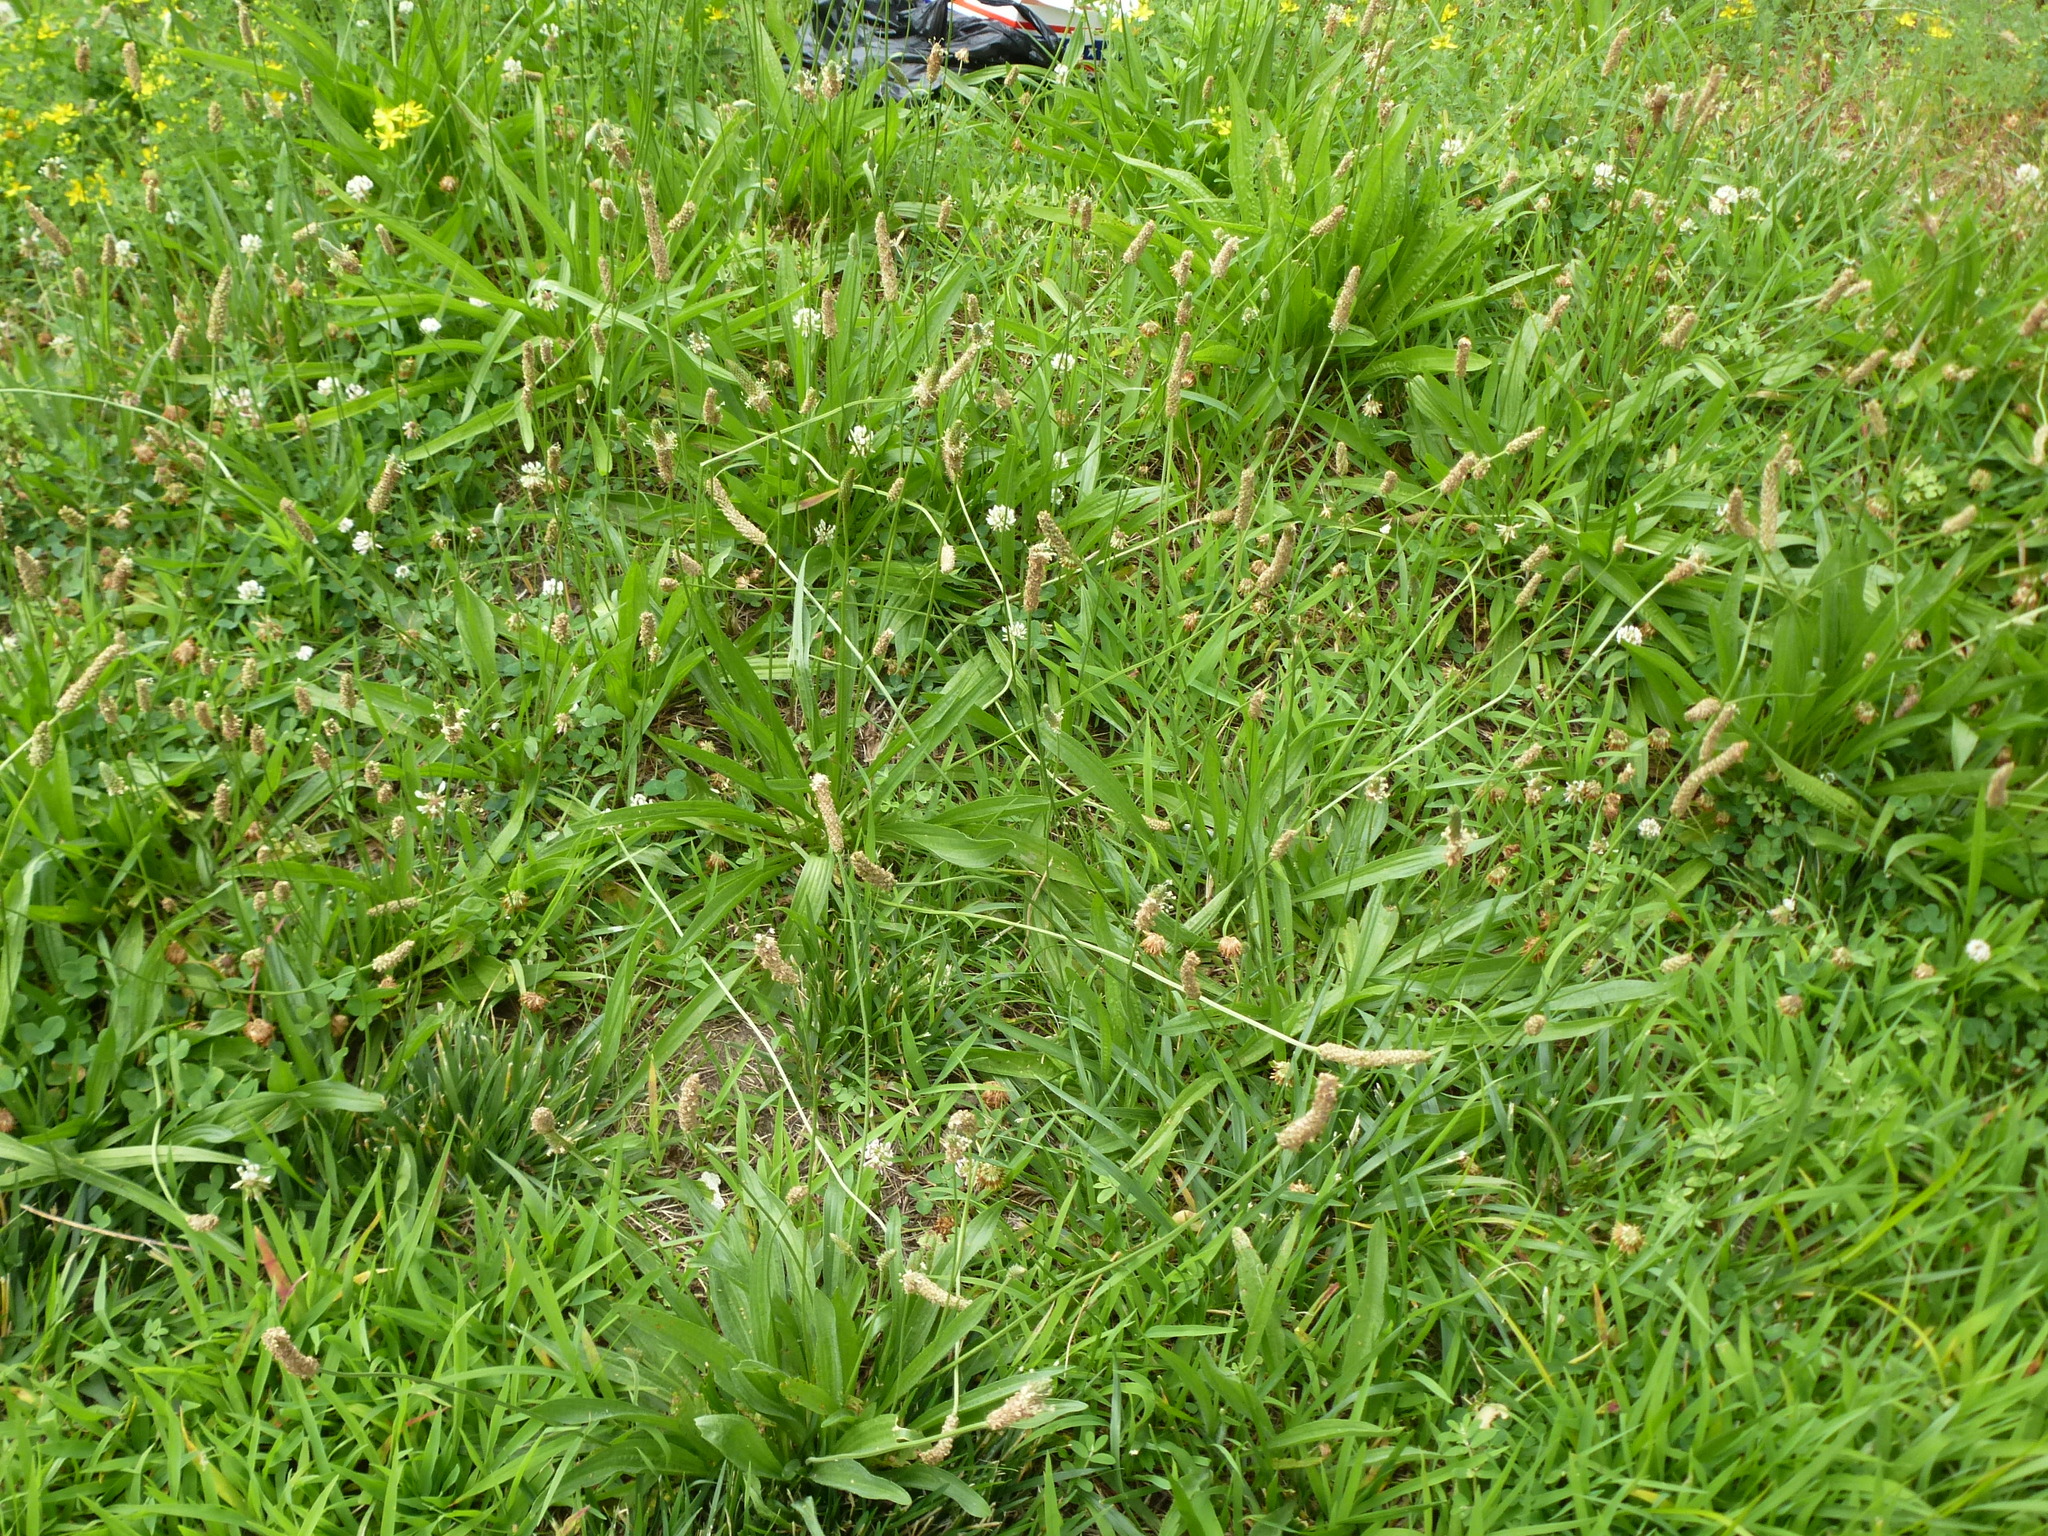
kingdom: Plantae
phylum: Tracheophyta
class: Magnoliopsida
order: Lamiales
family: Plantaginaceae
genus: Plantago
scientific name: Plantago lanceolata
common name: Ribwort plantain
